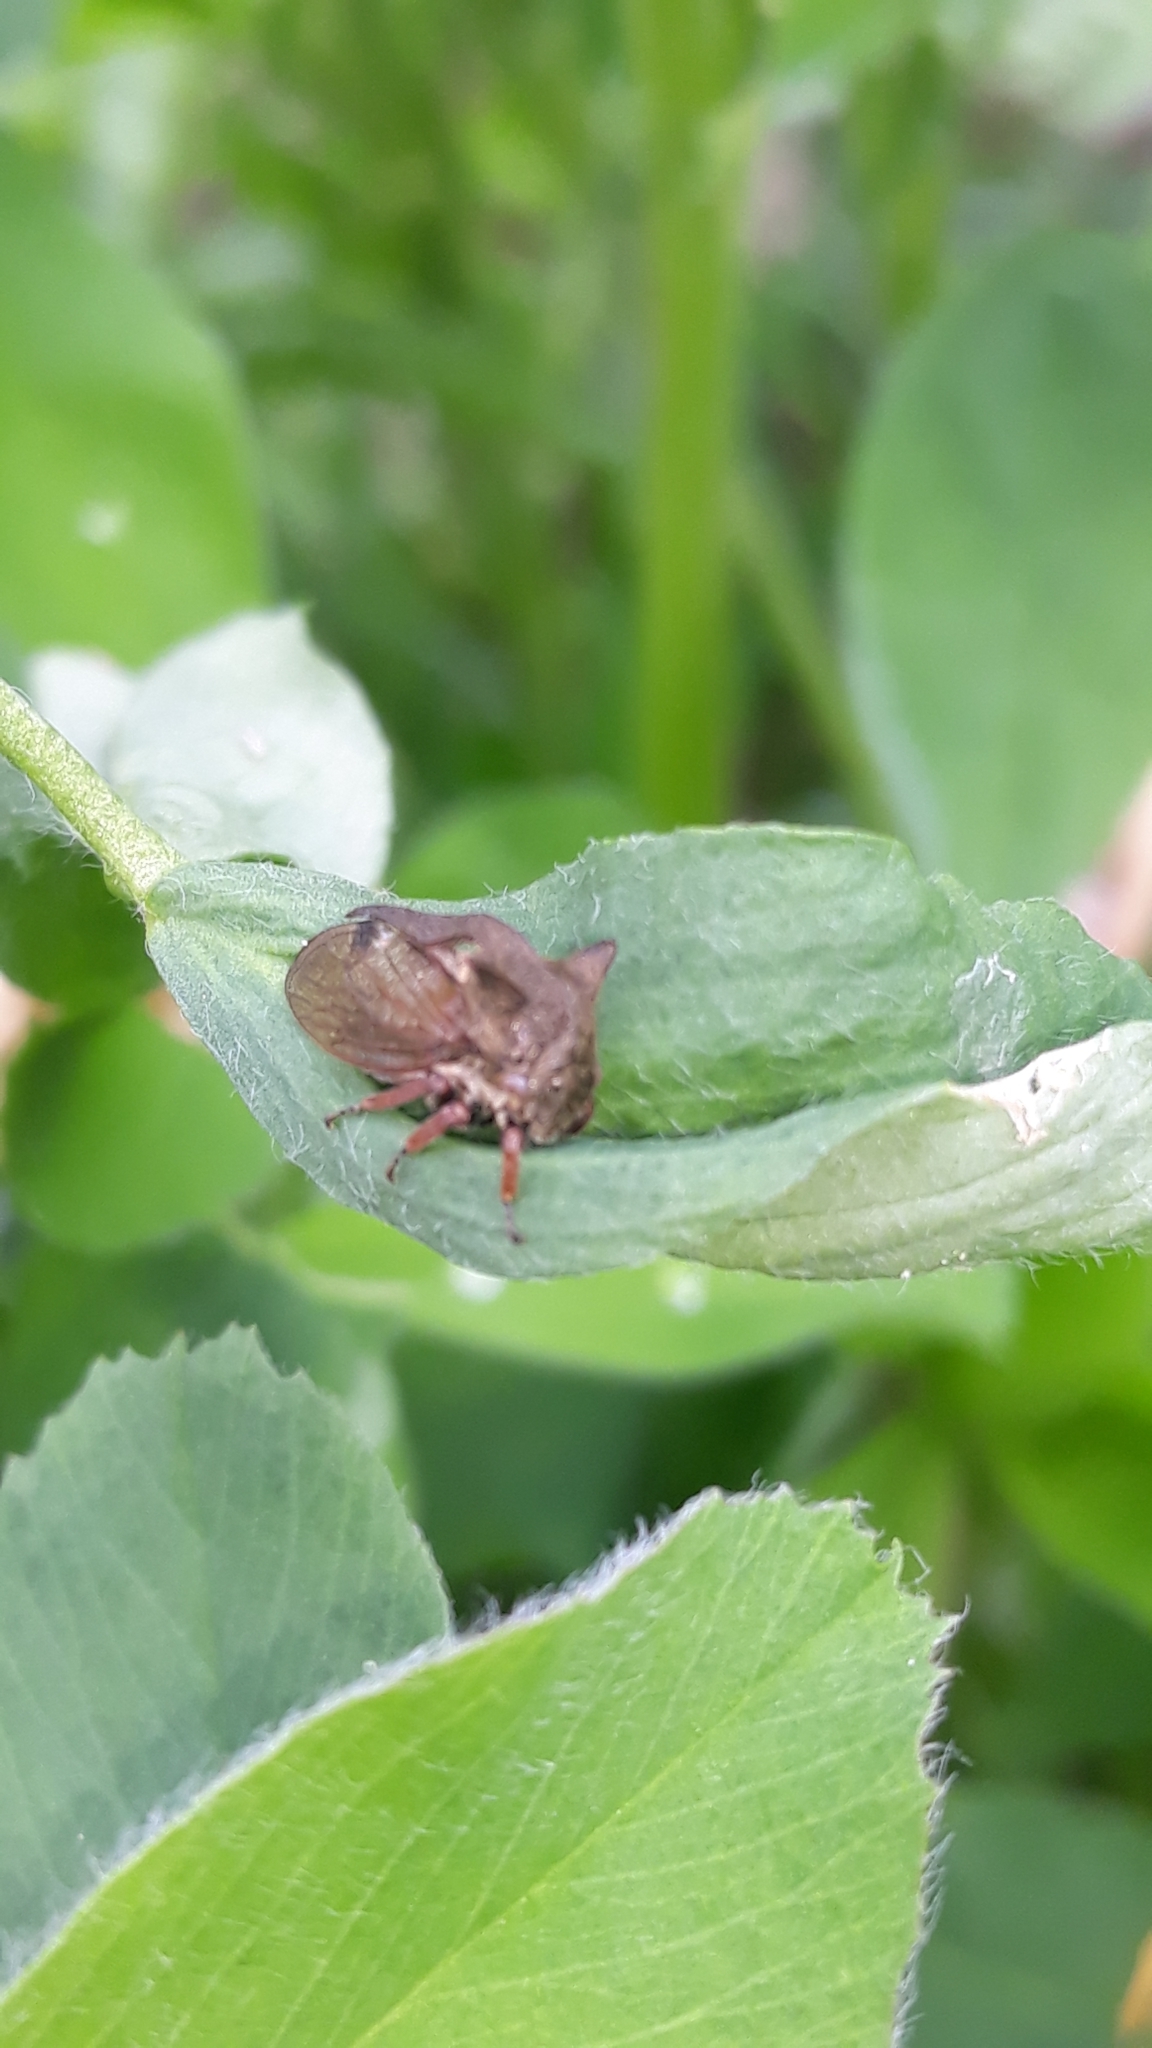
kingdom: Animalia
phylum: Arthropoda
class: Insecta
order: Hemiptera
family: Membracidae
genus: Centrotus
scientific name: Centrotus cornuta
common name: Treehopper
